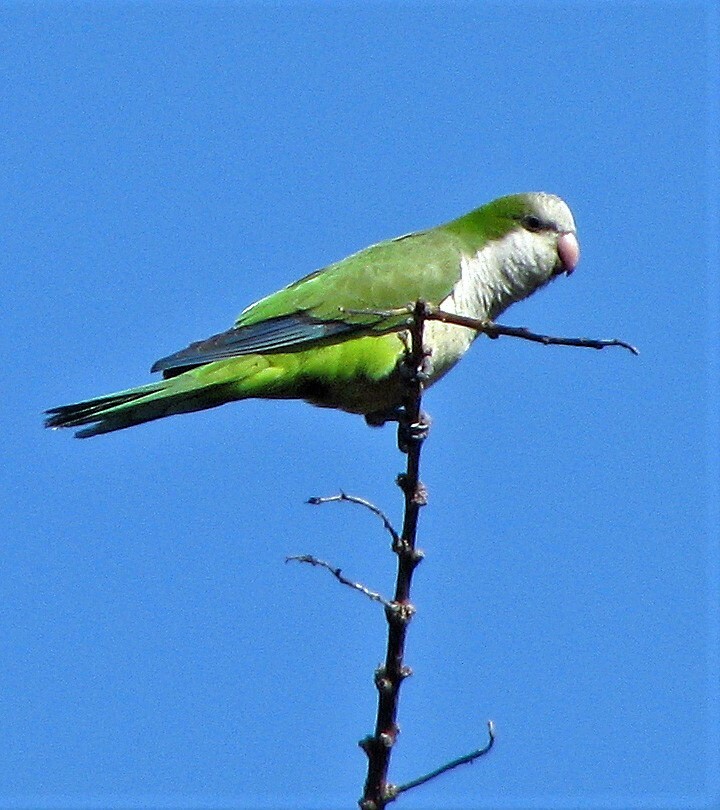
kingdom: Animalia
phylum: Chordata
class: Aves
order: Psittaciformes
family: Psittacidae
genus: Myiopsitta
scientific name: Myiopsitta monachus
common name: Monk parakeet
